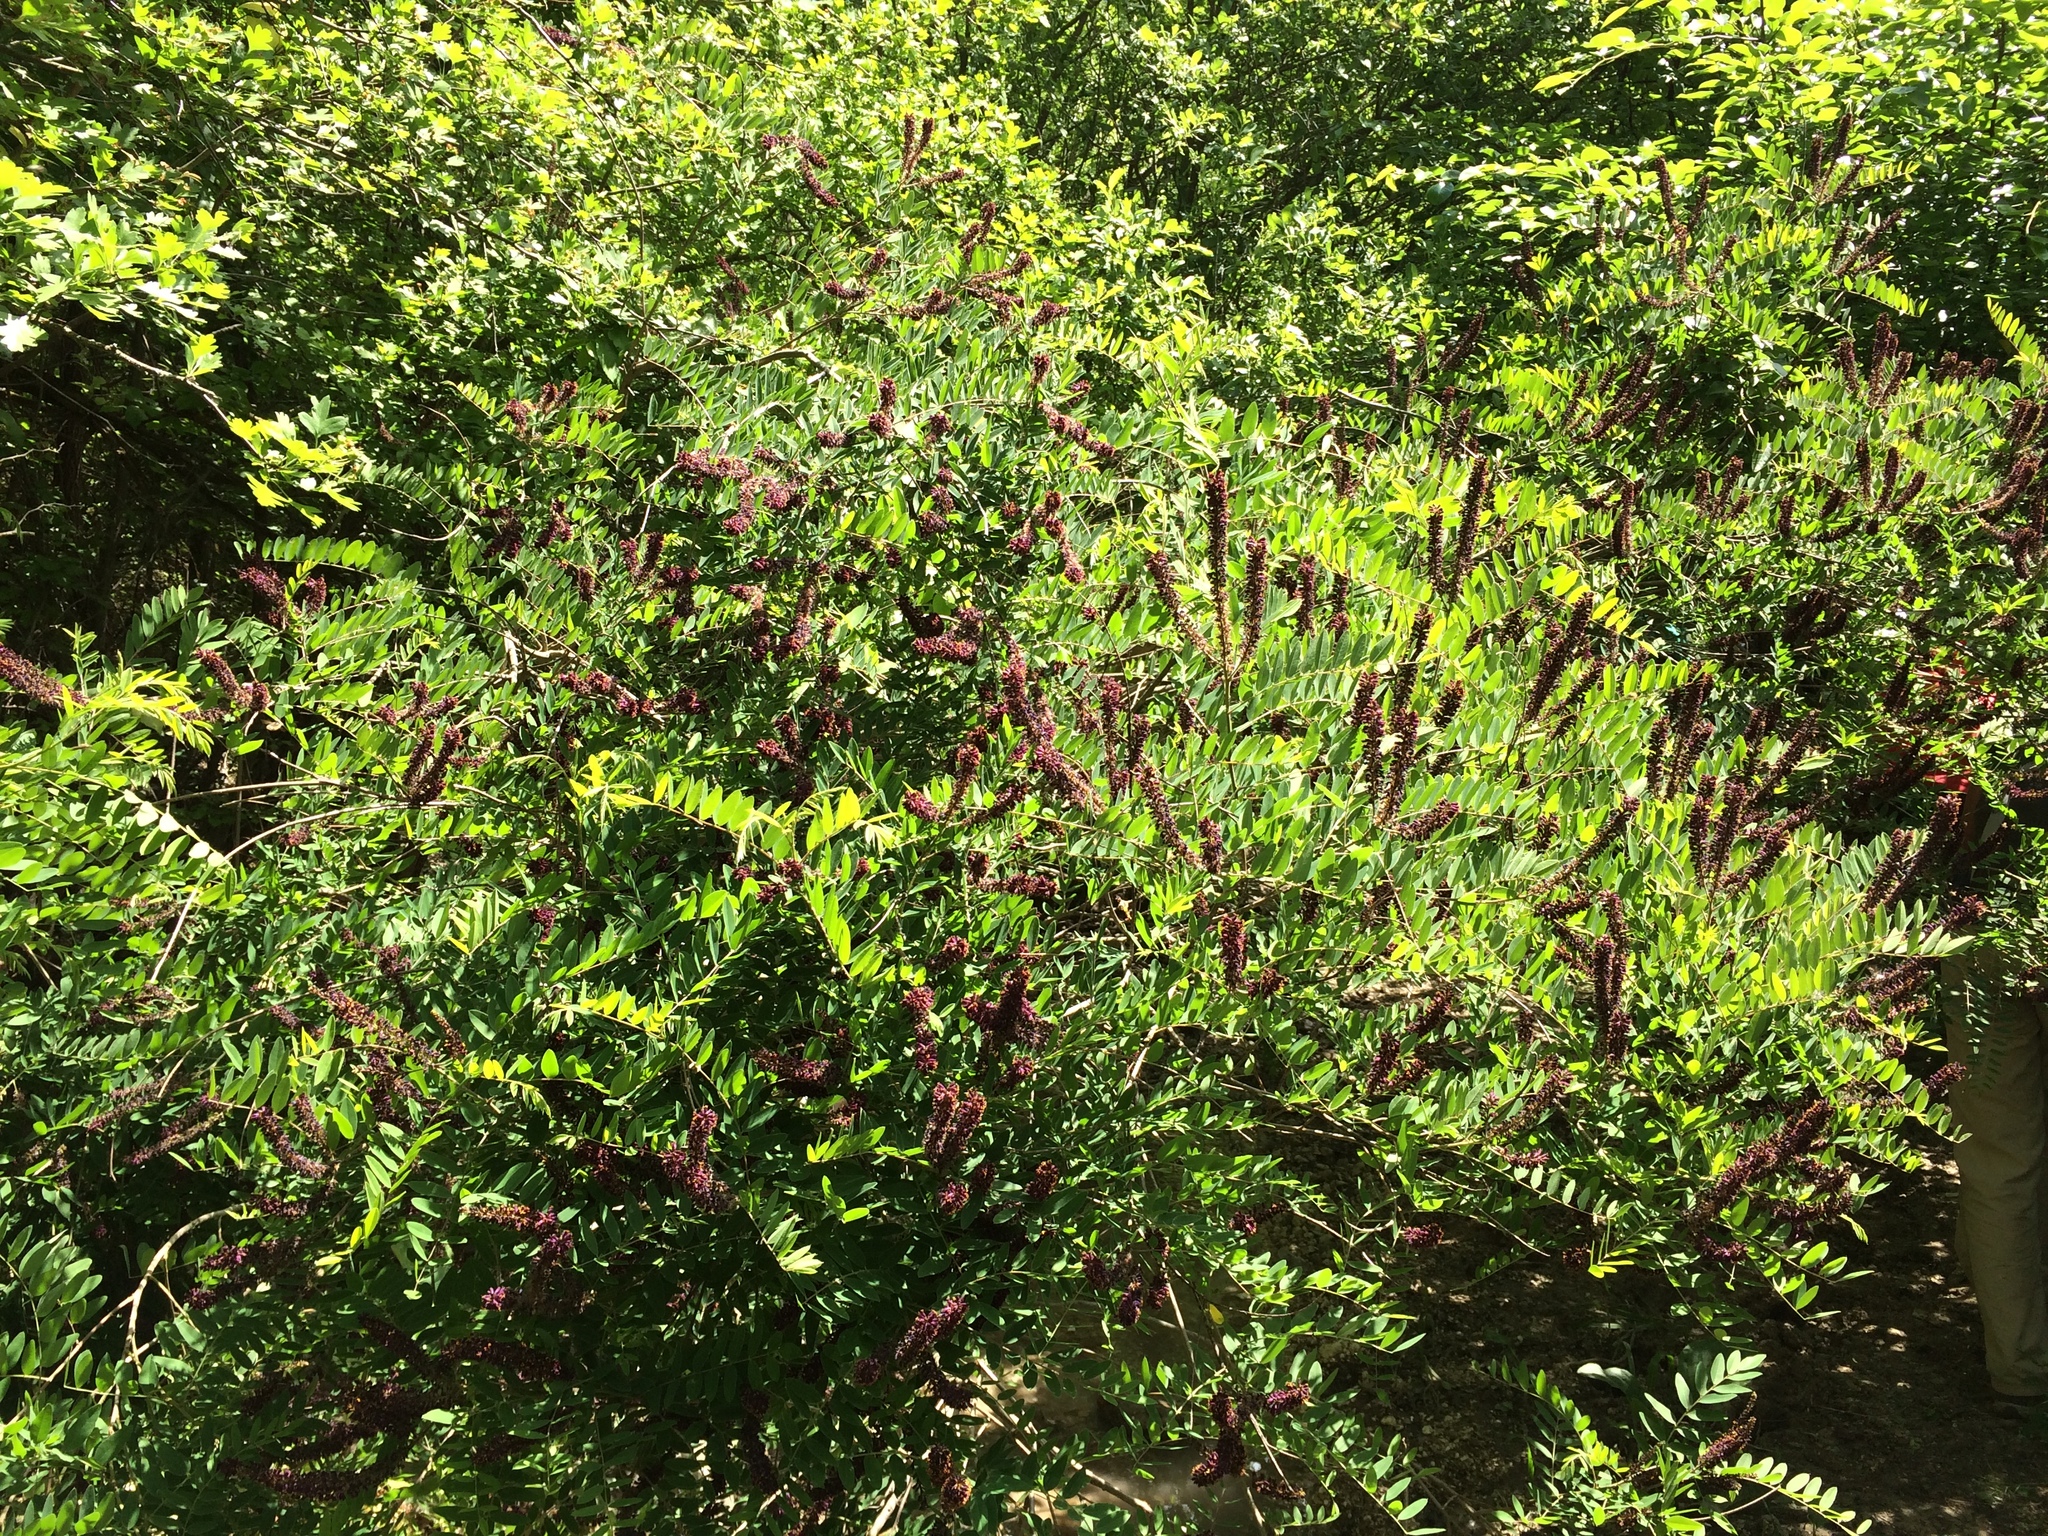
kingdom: Plantae
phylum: Tracheophyta
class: Magnoliopsida
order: Fabales
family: Fabaceae
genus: Amorpha
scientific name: Amorpha fruticosa
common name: False indigo
